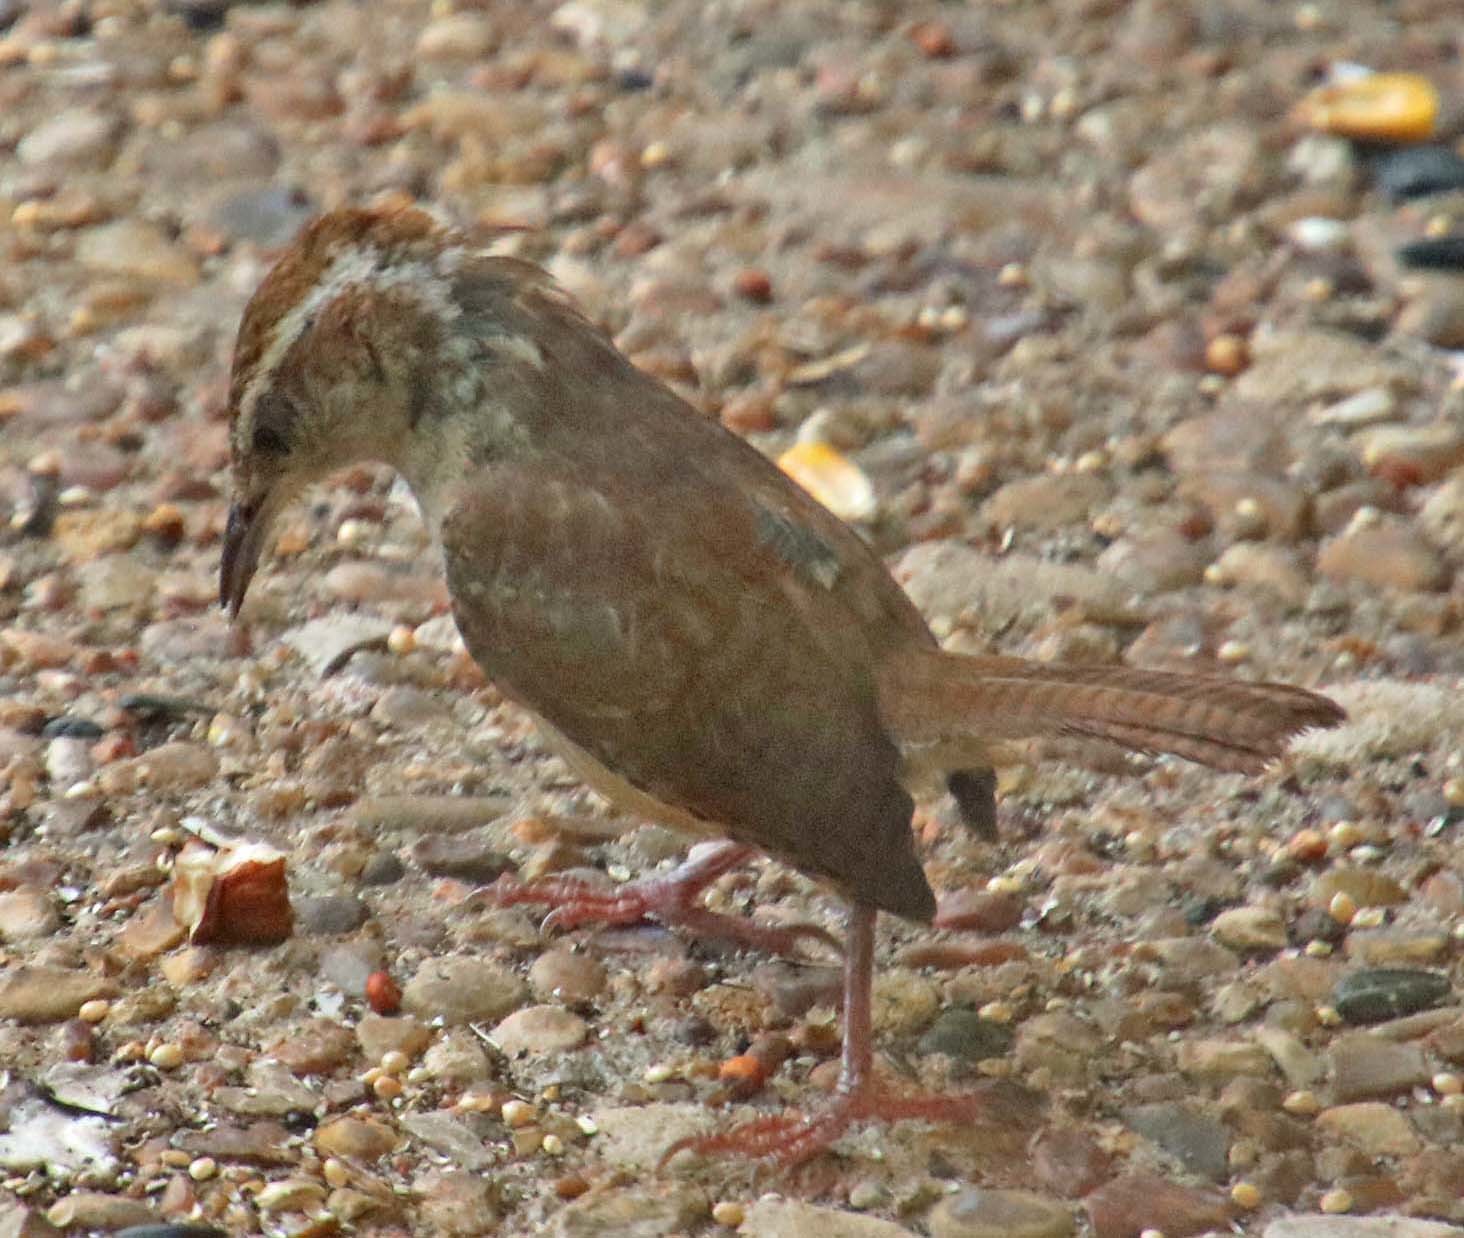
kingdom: Animalia
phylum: Chordata
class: Aves
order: Passeriformes
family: Troglodytidae
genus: Thryothorus
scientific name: Thryothorus ludovicianus
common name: Carolina wren
